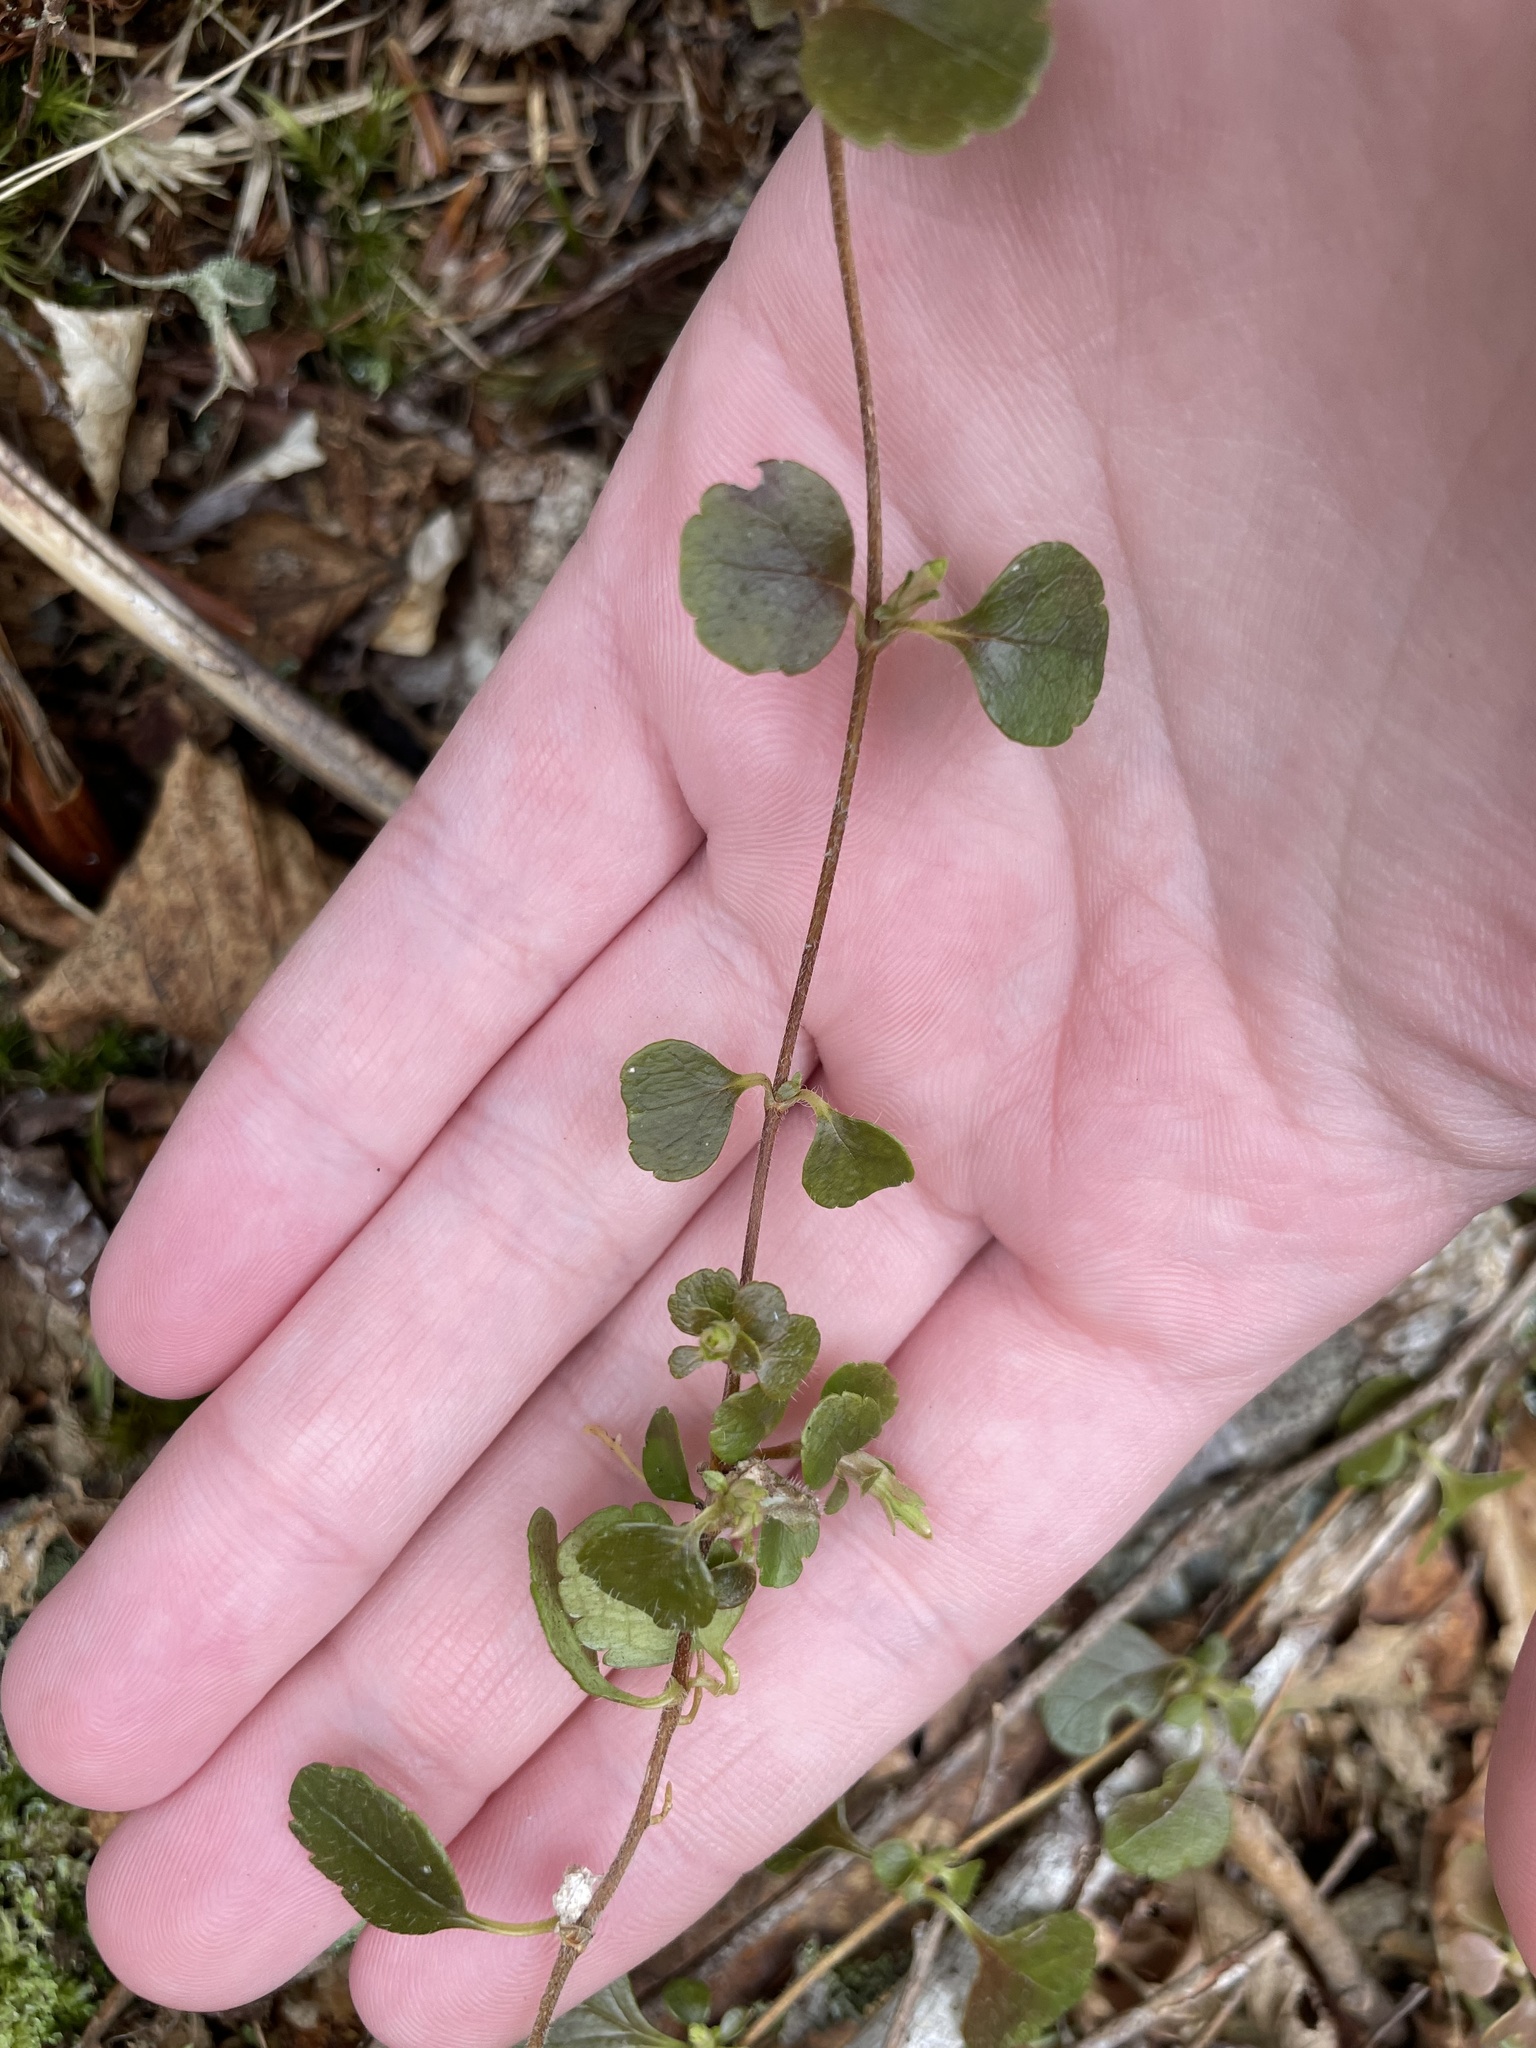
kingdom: Plantae
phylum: Tracheophyta
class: Magnoliopsida
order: Dipsacales
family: Caprifoliaceae
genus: Linnaea
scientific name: Linnaea borealis
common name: Twinflower
